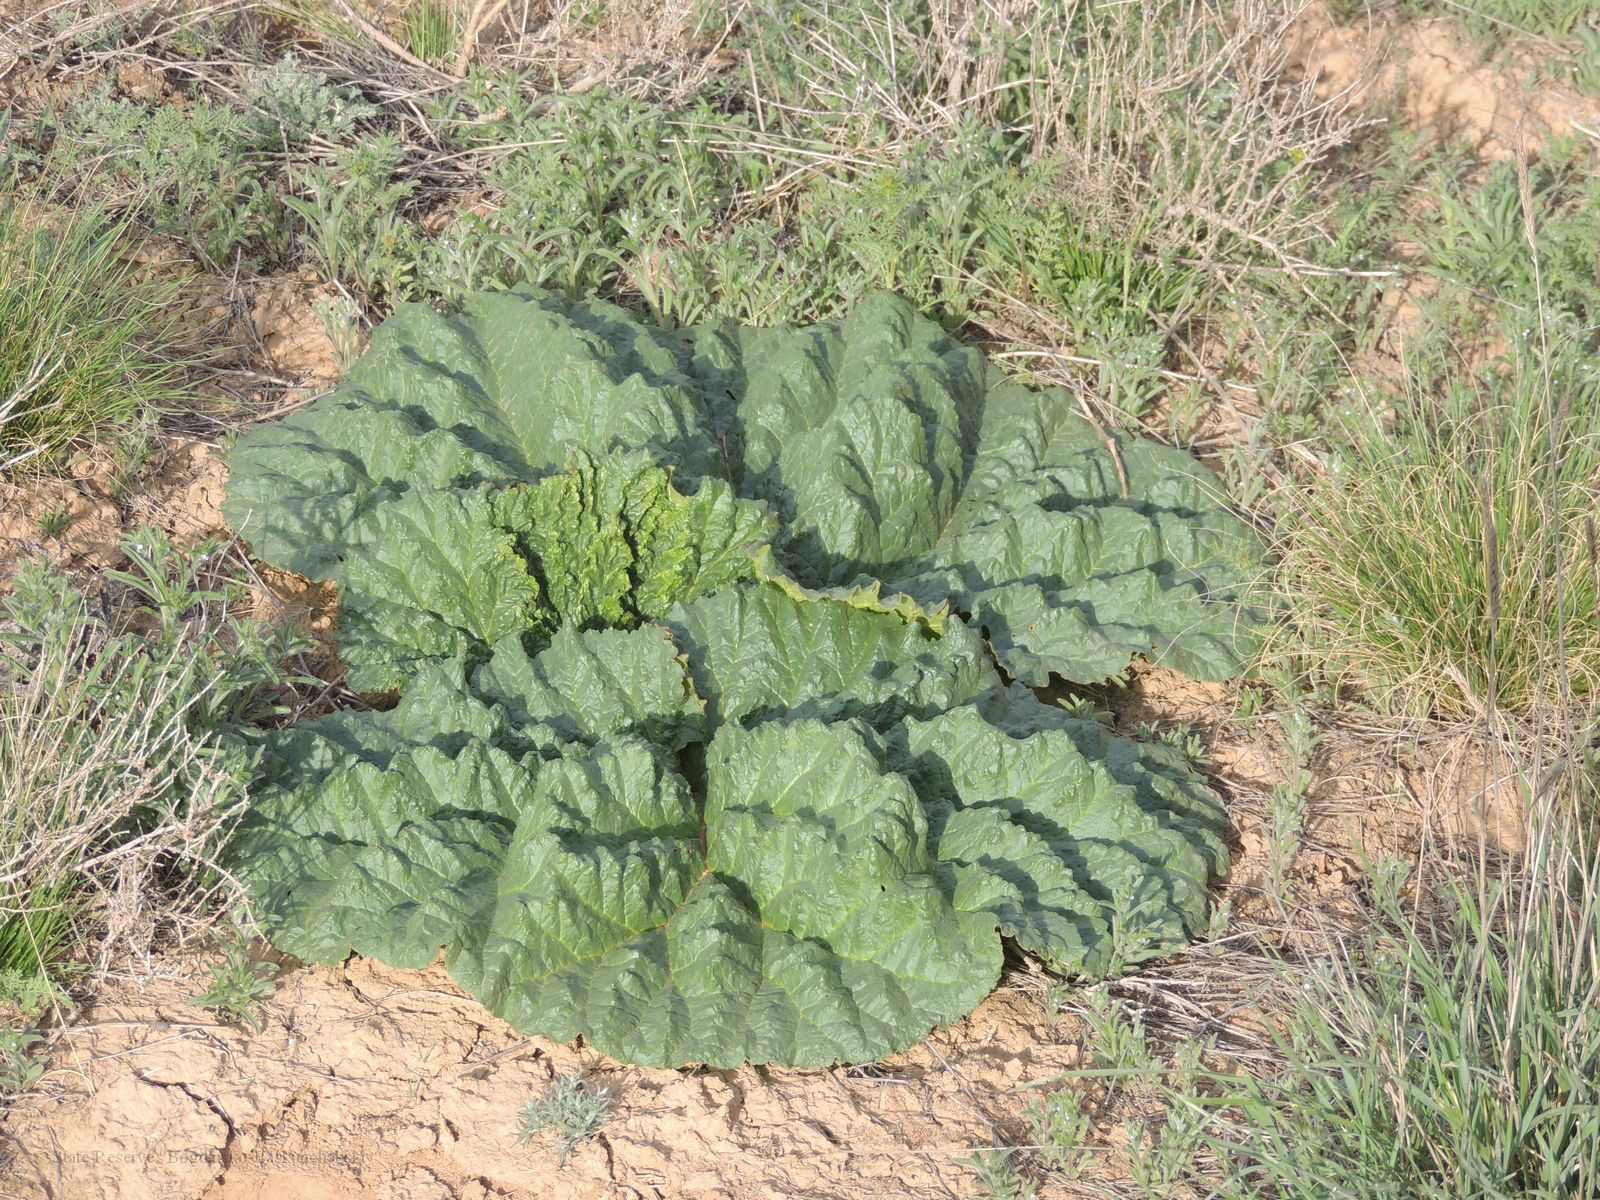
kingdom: Plantae
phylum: Tracheophyta
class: Magnoliopsida
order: Caryophyllales
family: Polygonaceae
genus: Rheum
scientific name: Rheum tataricum
